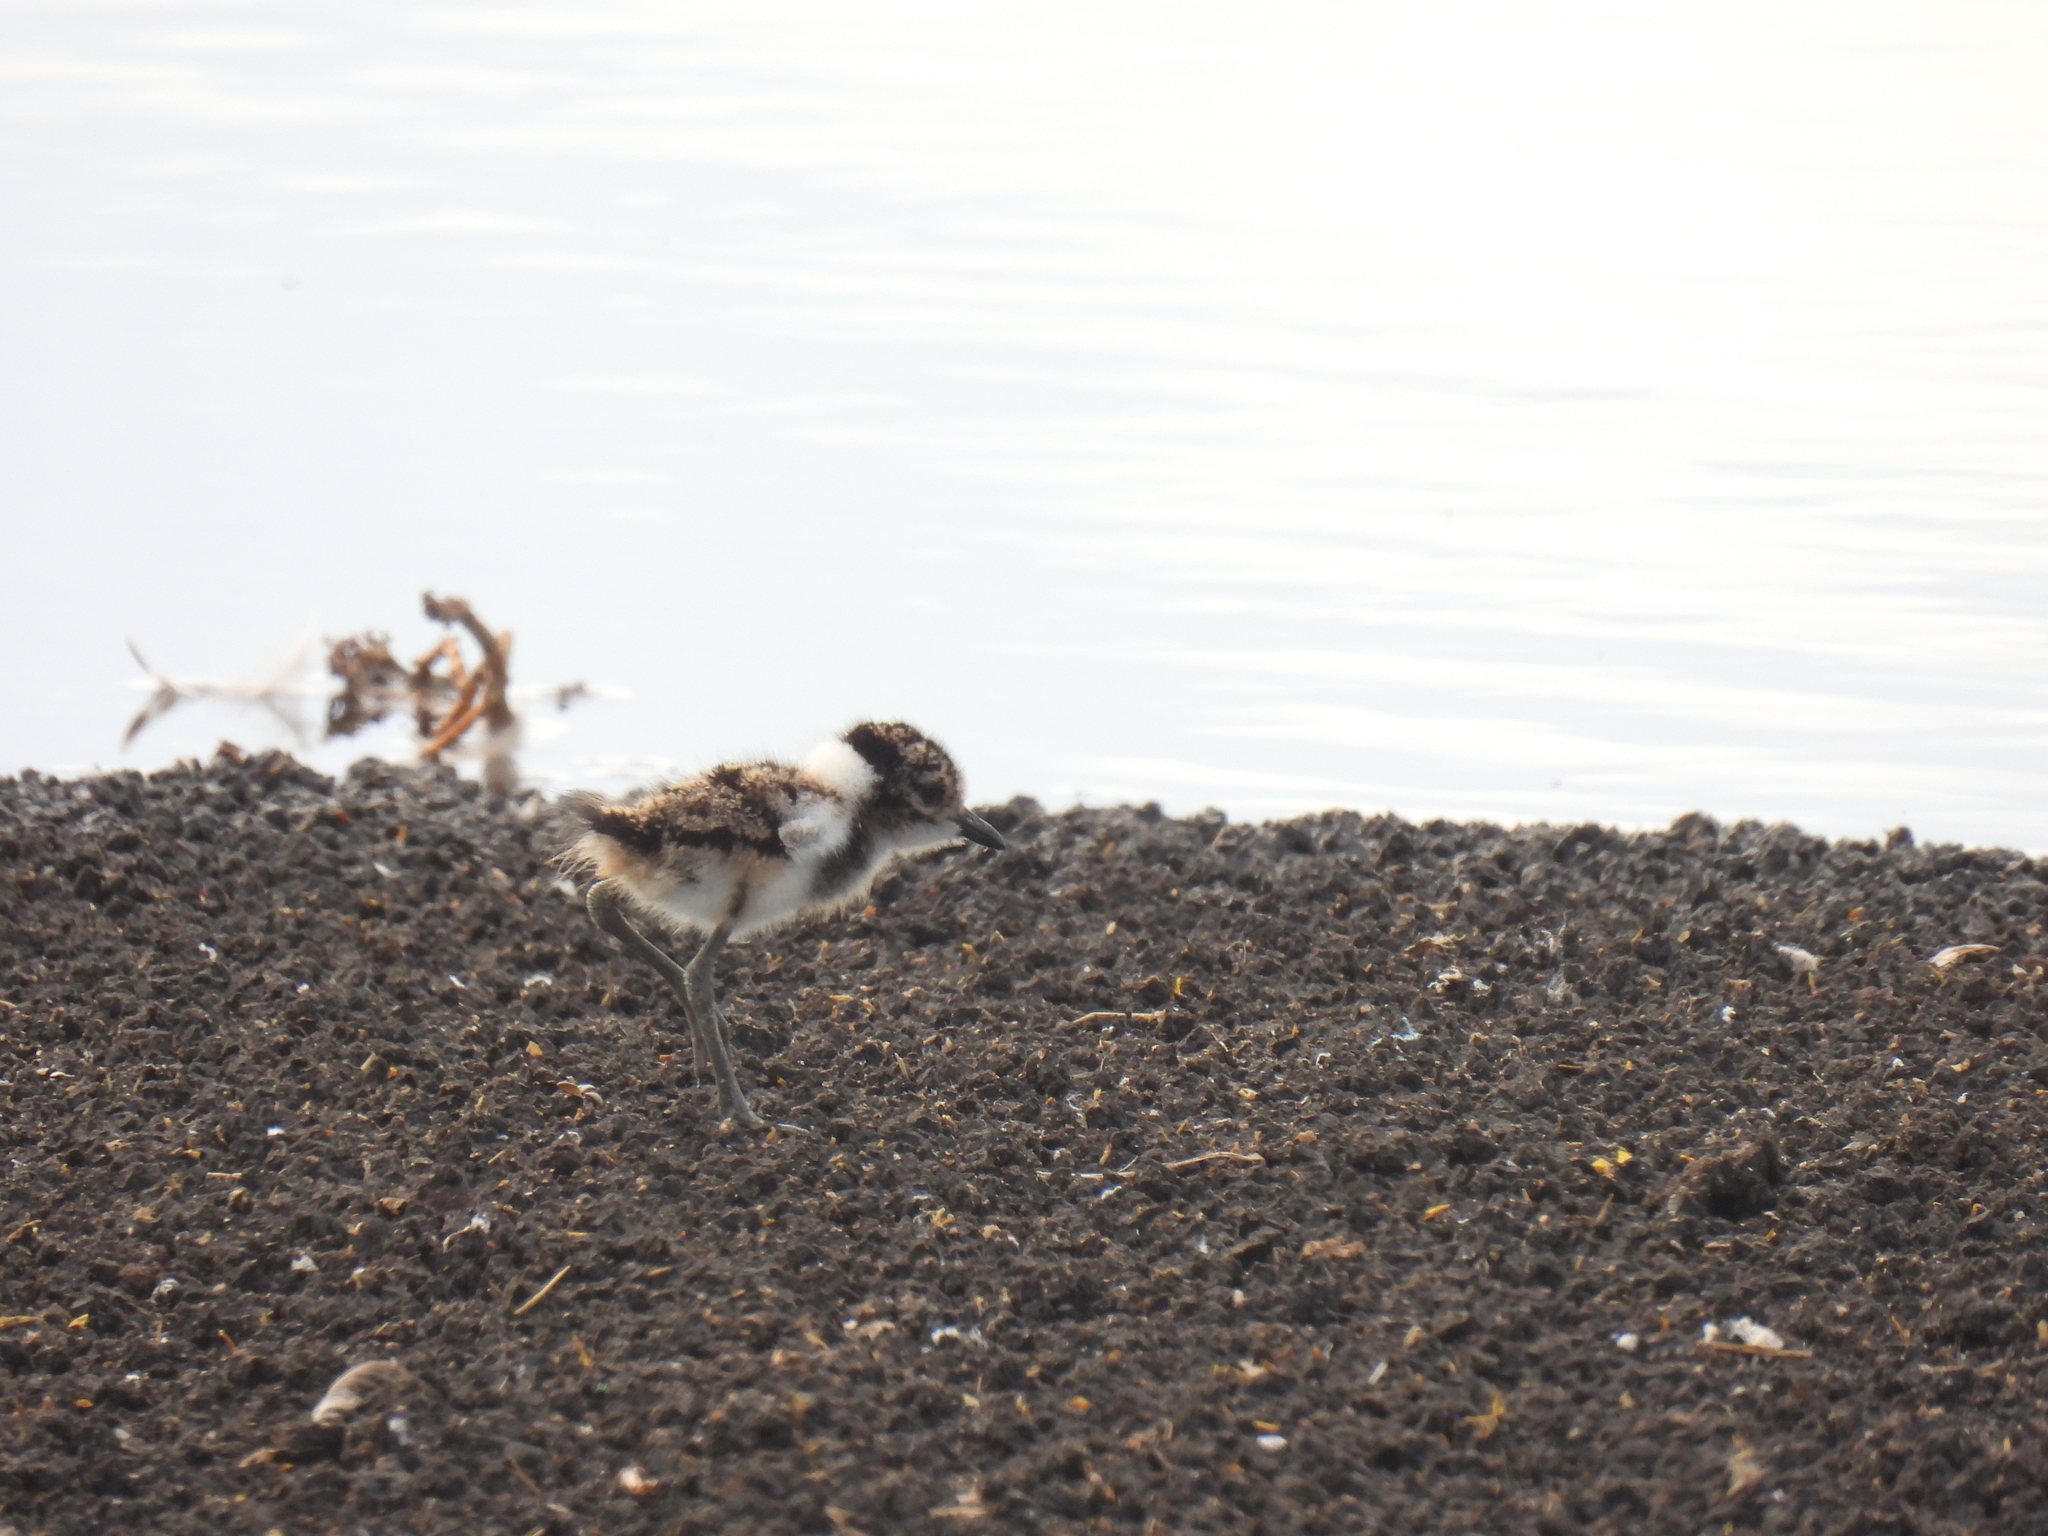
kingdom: Animalia
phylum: Chordata
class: Aves
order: Charadriiformes
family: Charadriidae
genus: Vanellus
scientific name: Vanellus armatus
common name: Blacksmith lapwing
